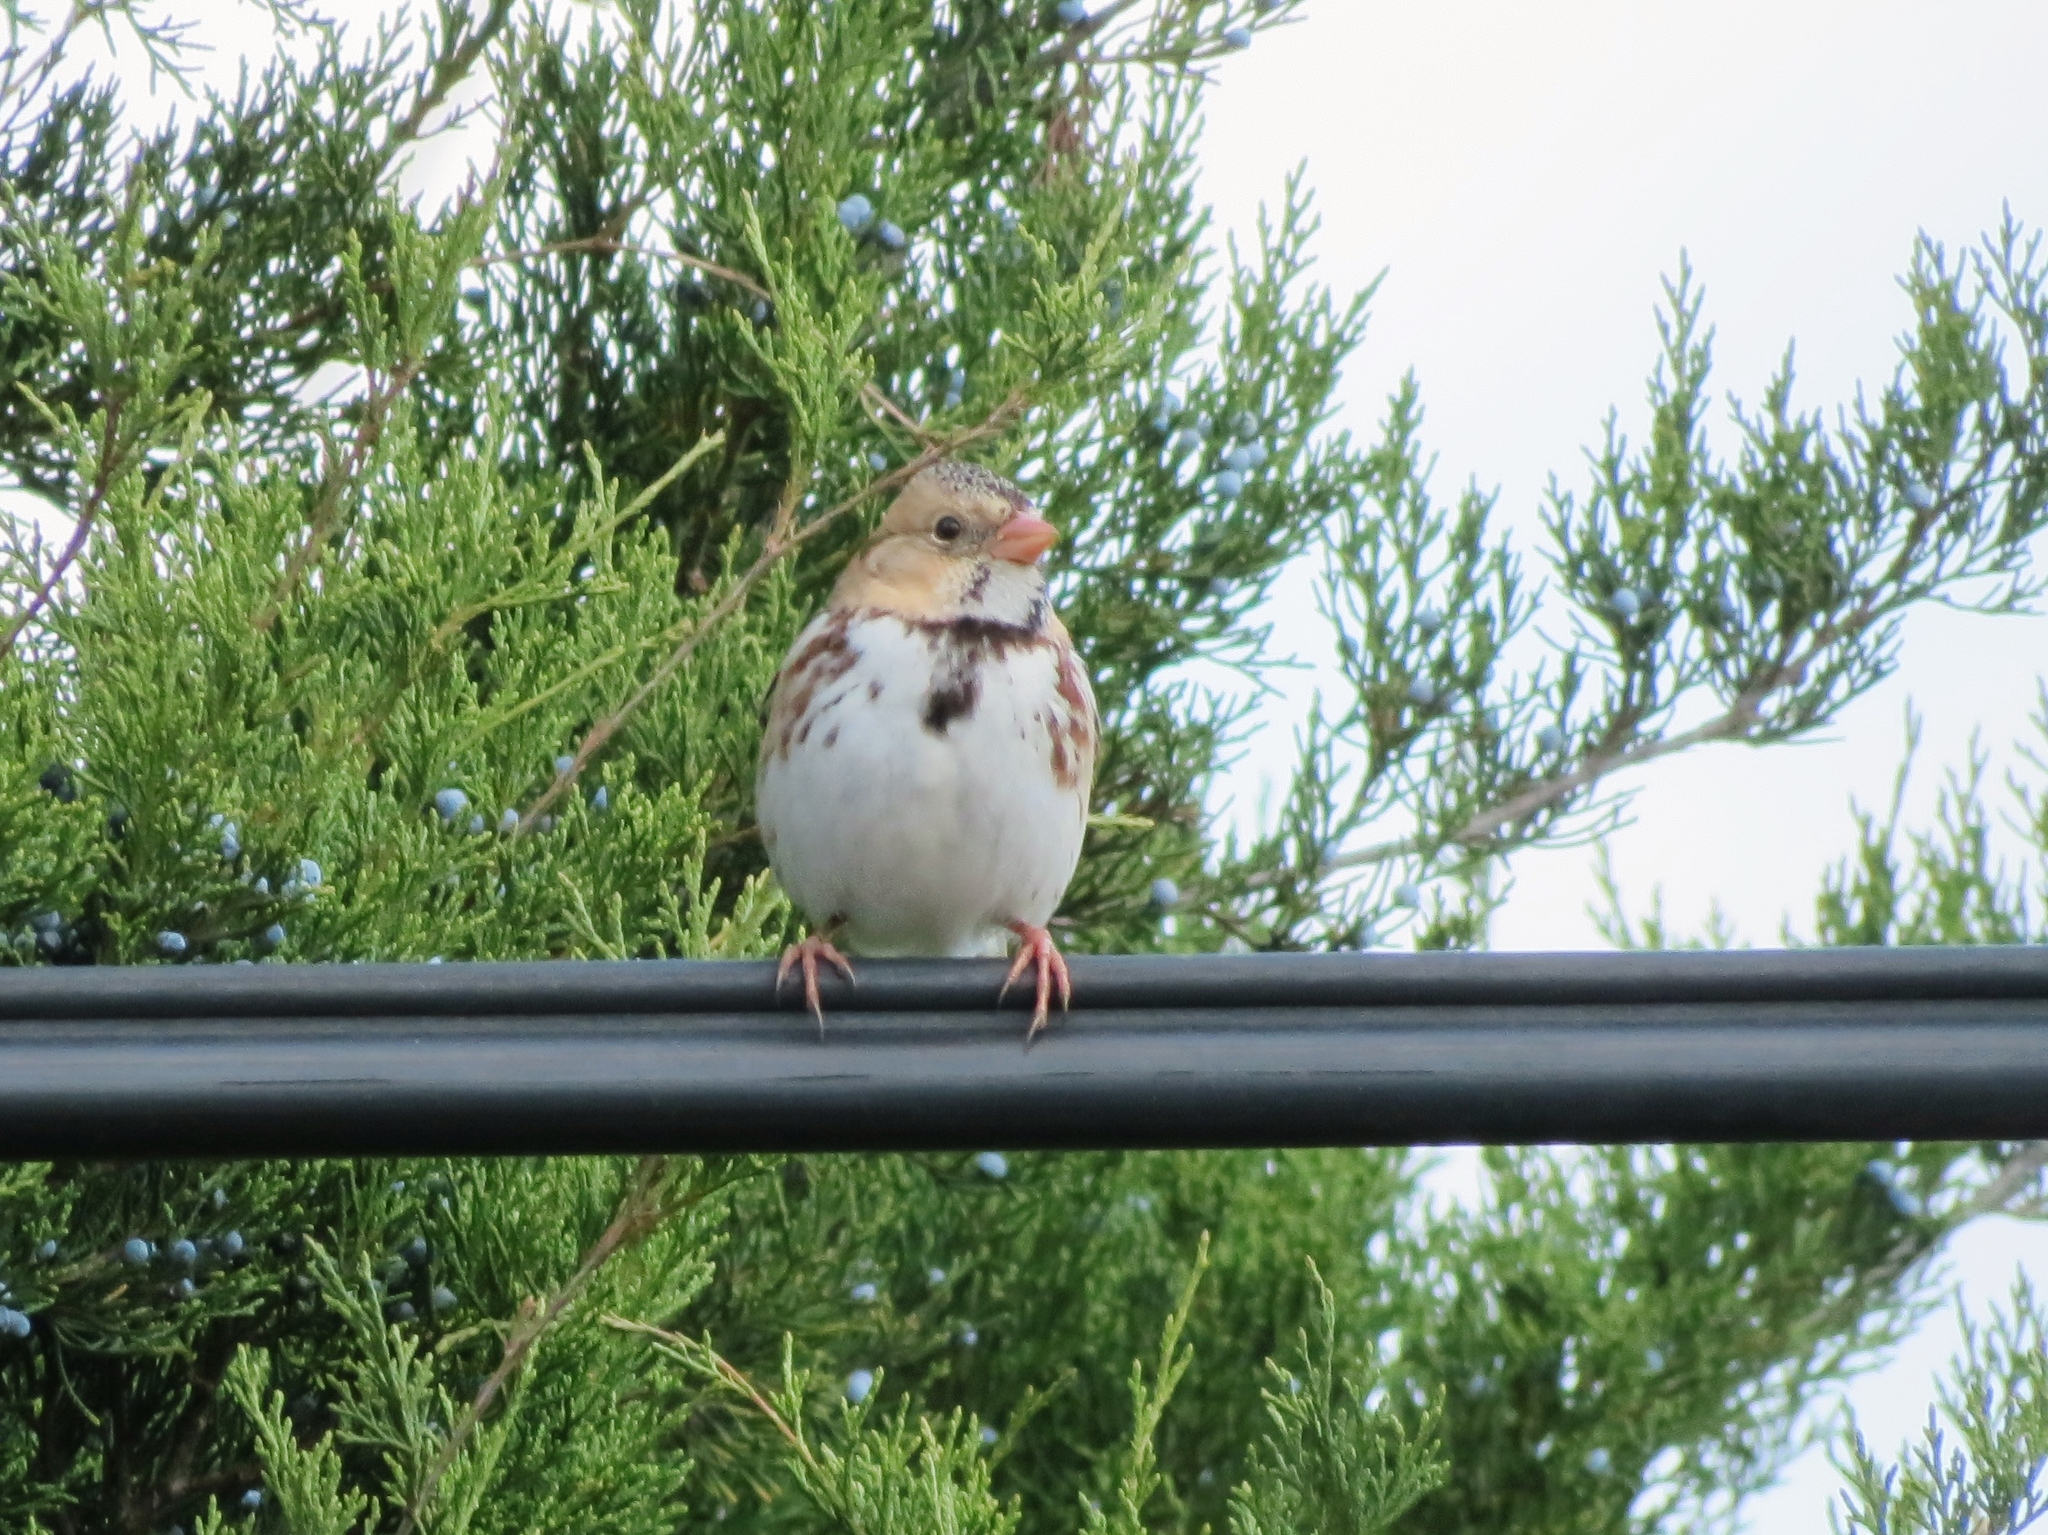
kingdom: Animalia
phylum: Chordata
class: Aves
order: Passeriformes
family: Passerellidae
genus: Zonotrichia
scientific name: Zonotrichia querula
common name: Harris's sparrow
